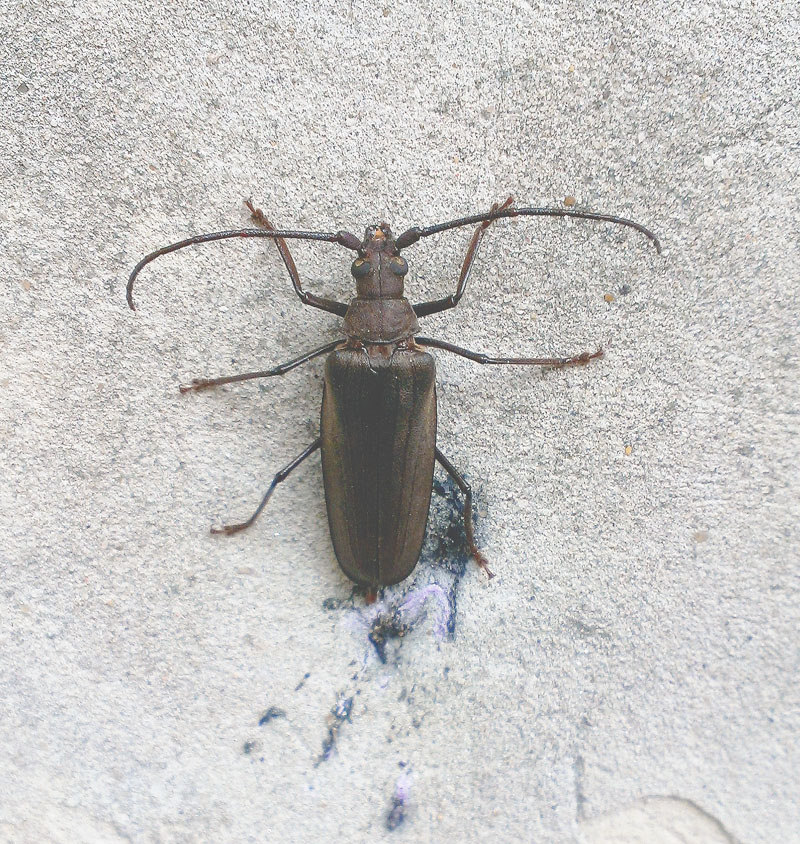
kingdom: Animalia
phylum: Arthropoda
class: Insecta
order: Coleoptera
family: Cerambycidae
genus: Aegosoma
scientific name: Aegosoma scabricorne
